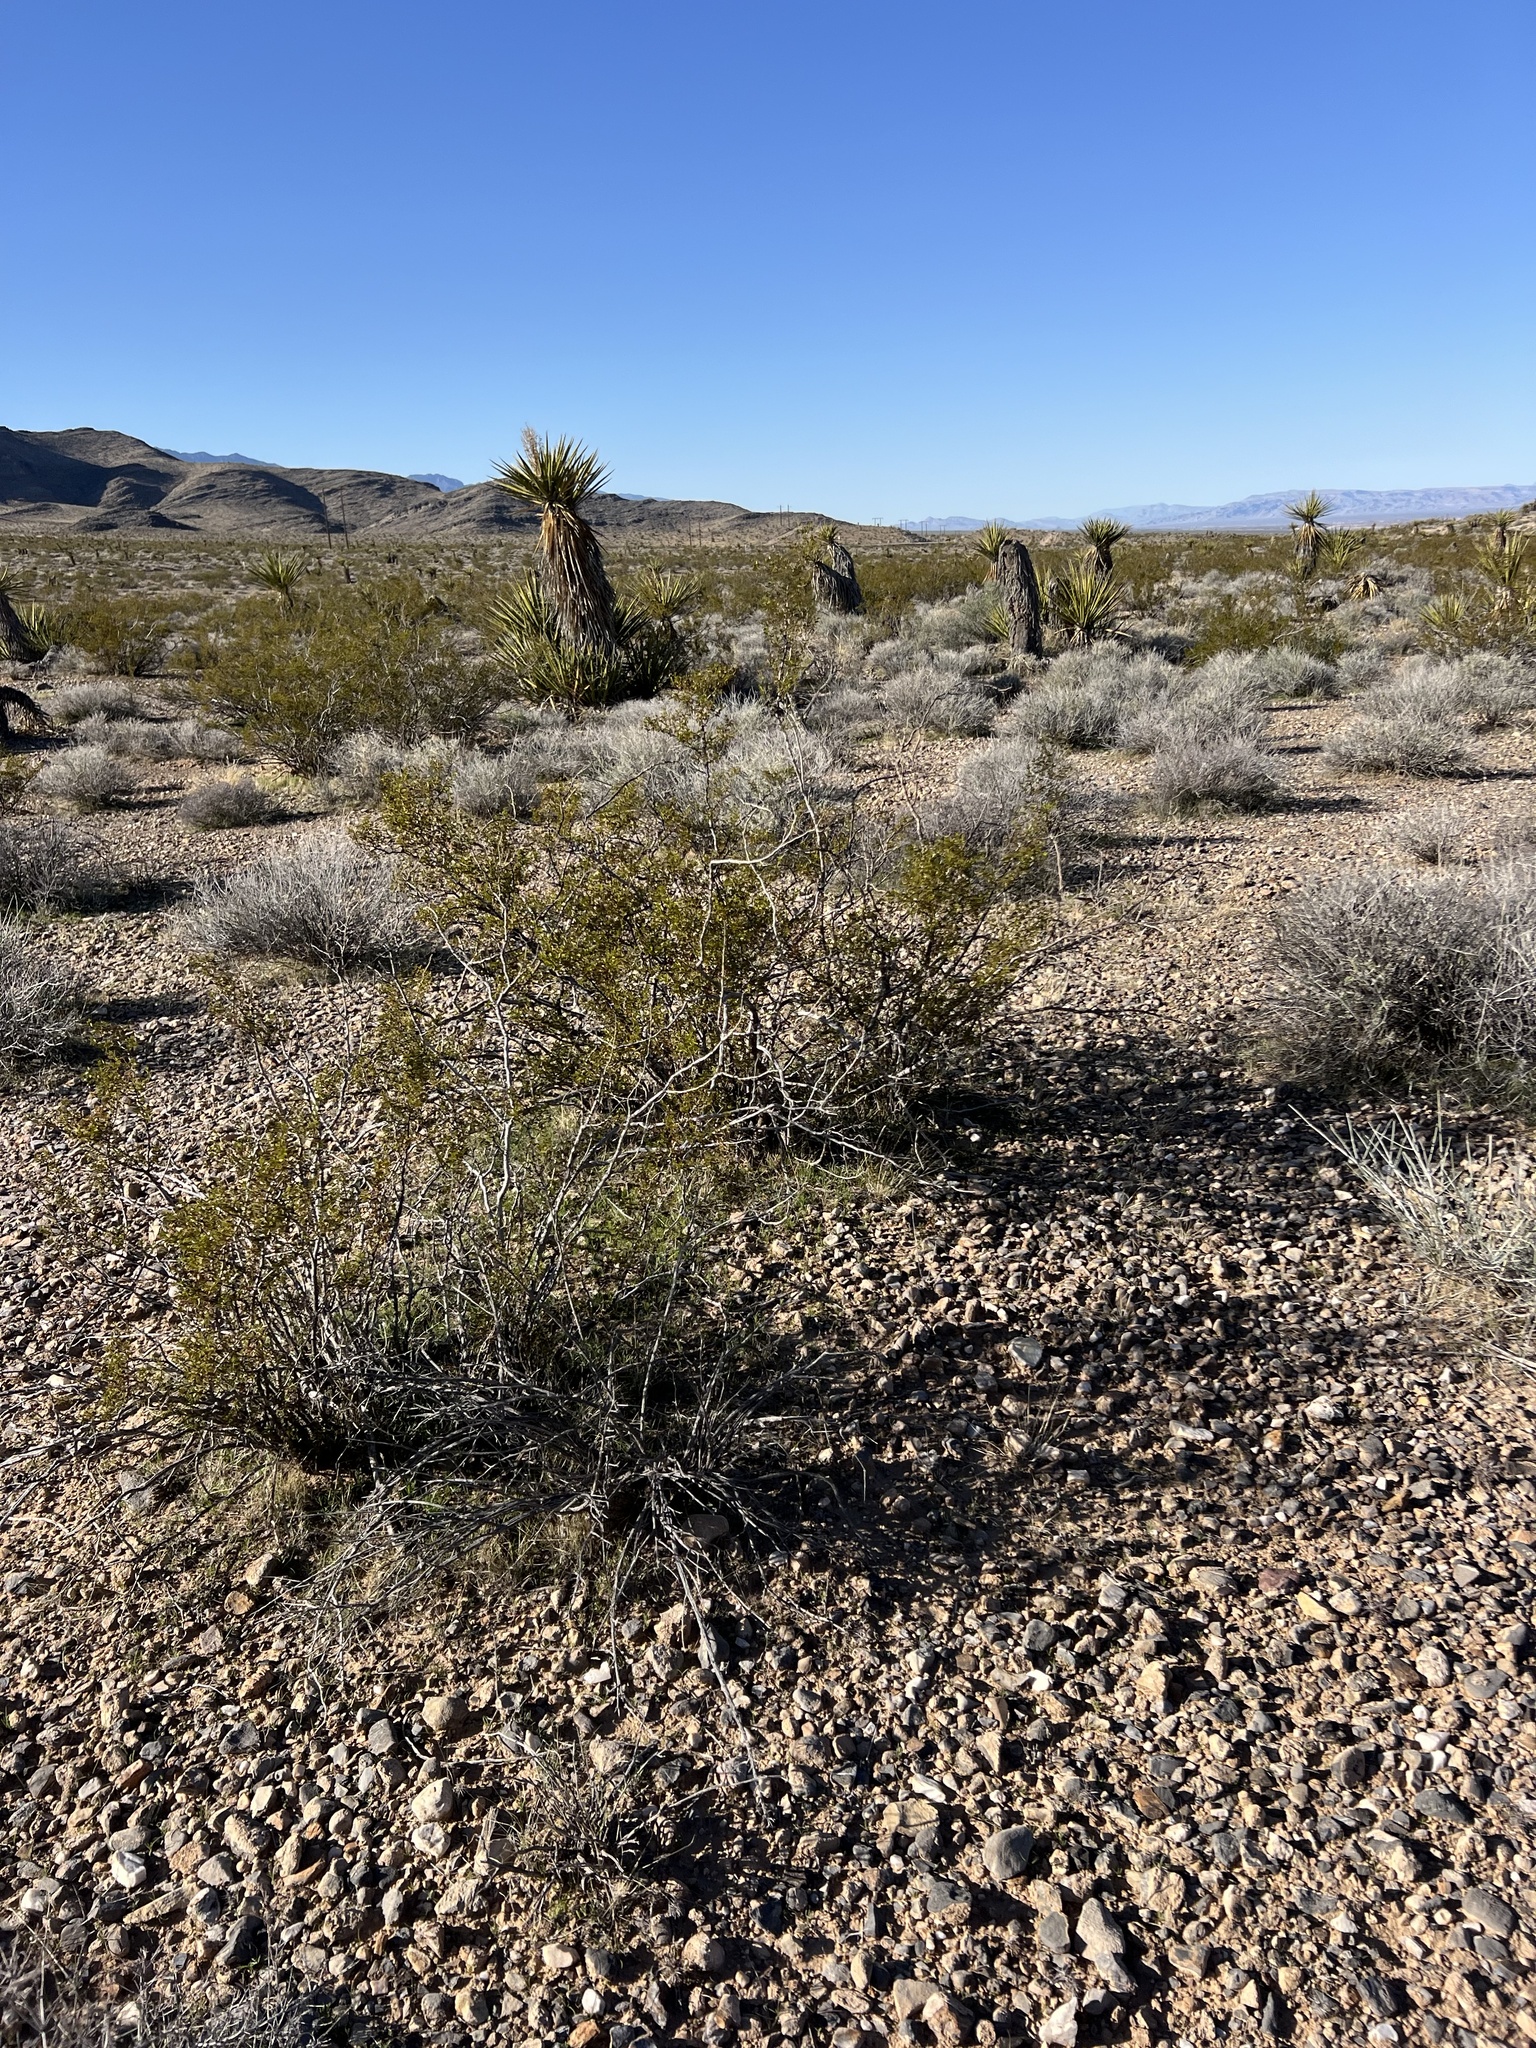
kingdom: Plantae
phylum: Tracheophyta
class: Magnoliopsida
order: Zygophyllales
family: Zygophyllaceae
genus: Larrea
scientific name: Larrea tridentata
